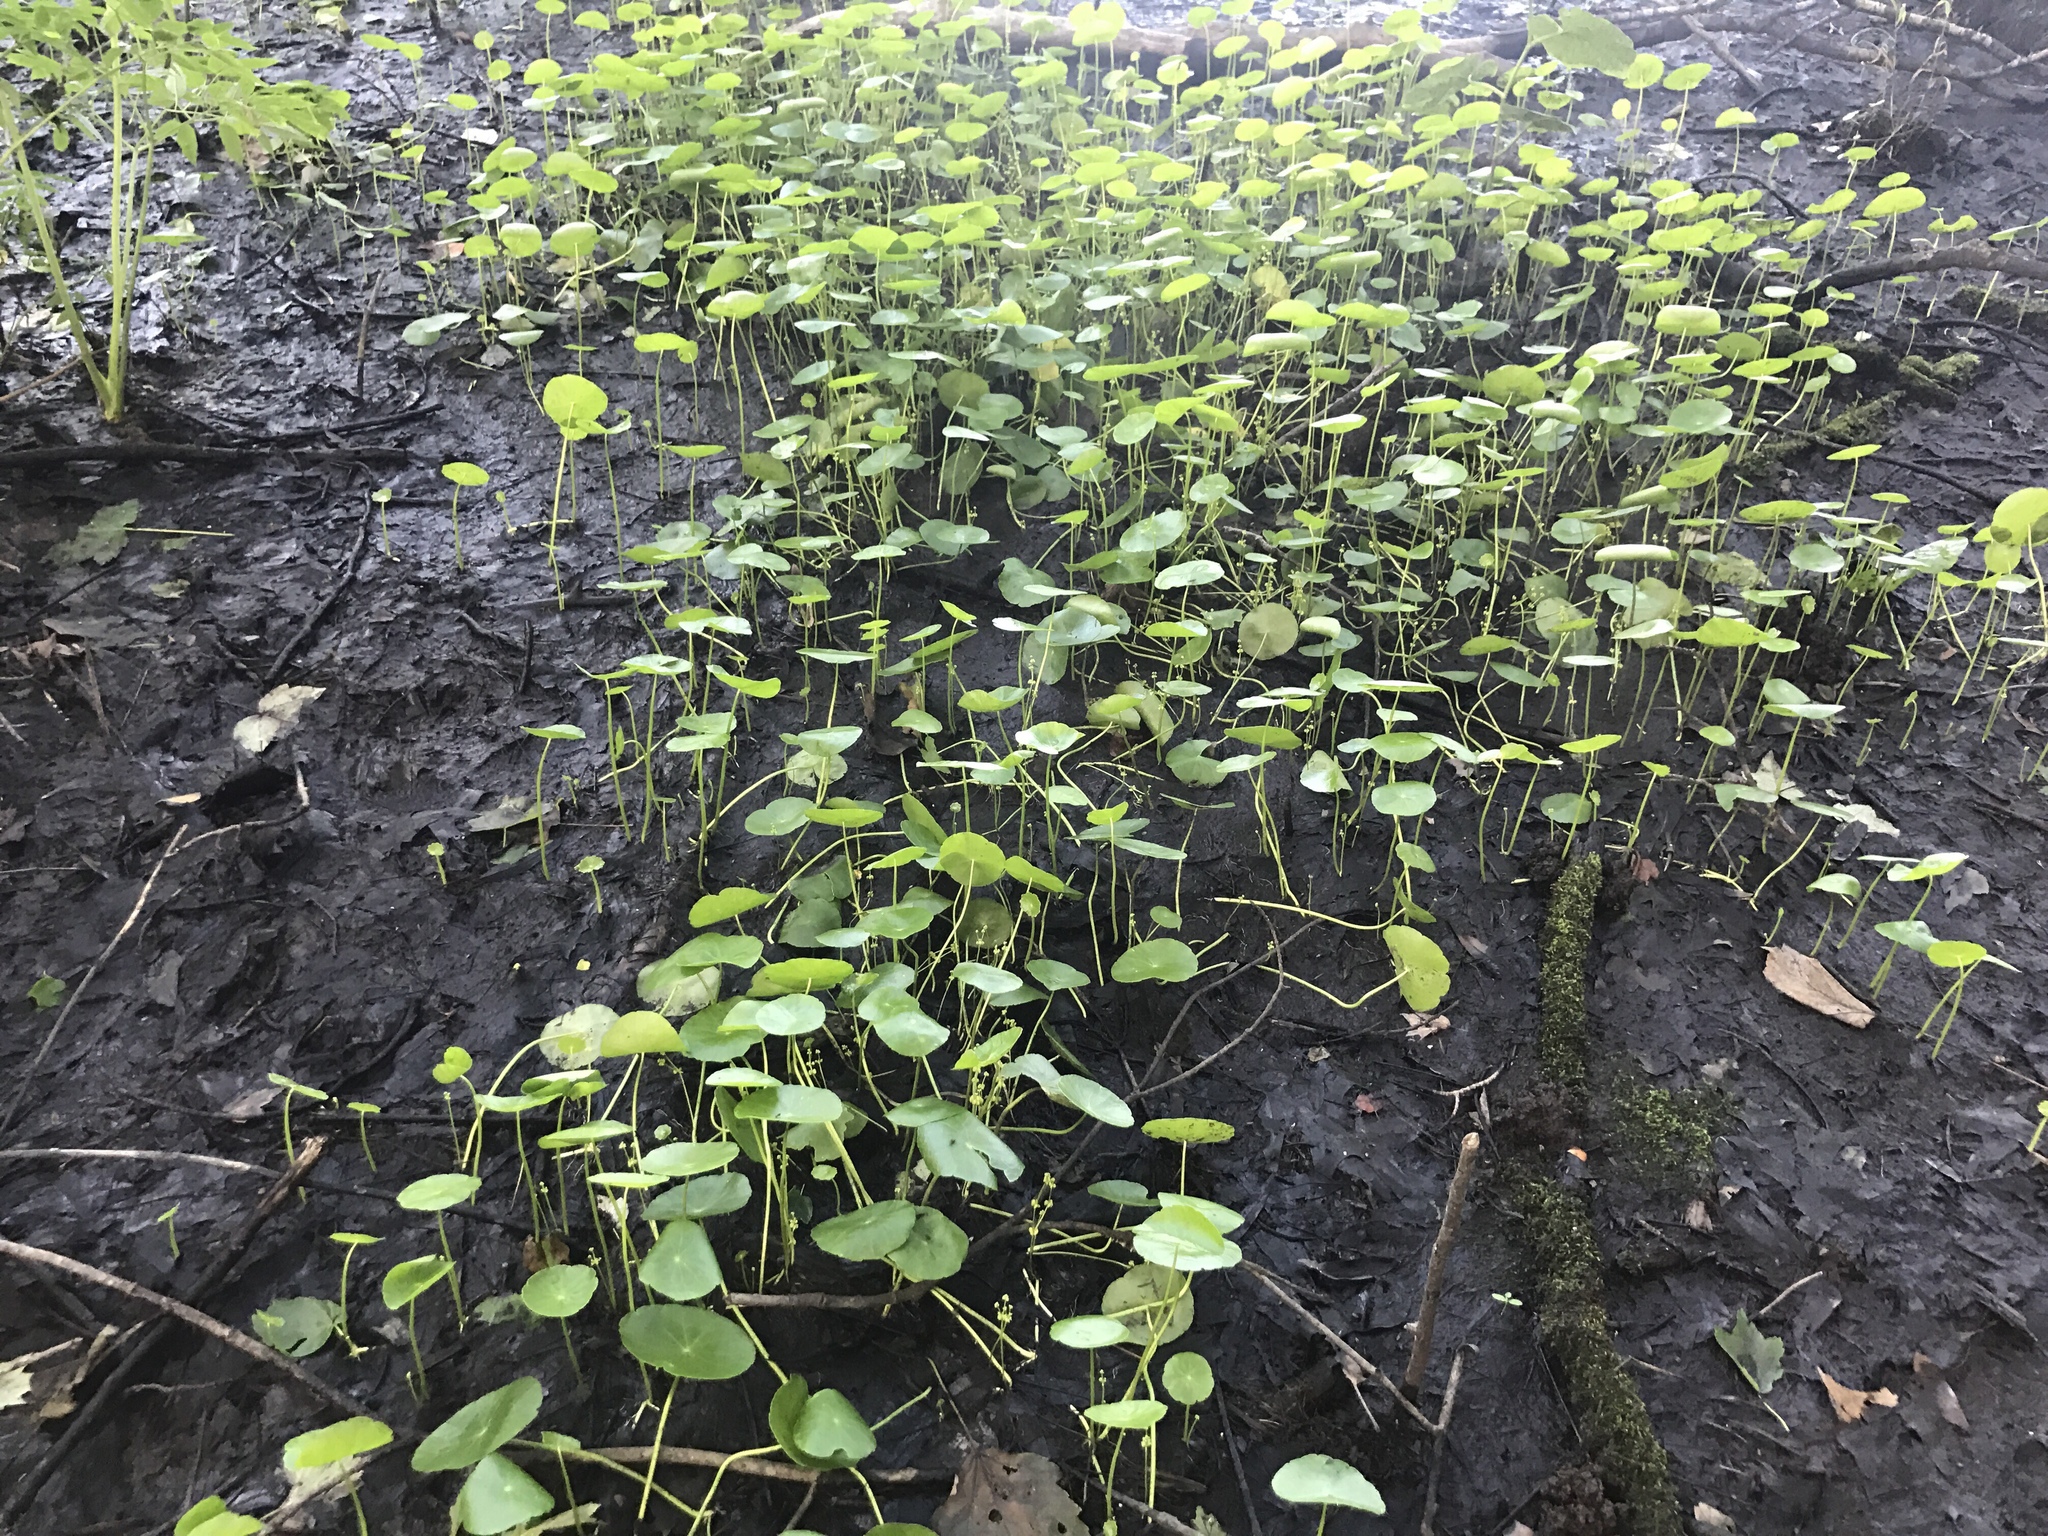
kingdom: Plantae
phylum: Tracheophyta
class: Magnoliopsida
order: Apiales
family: Araliaceae
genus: Hydrocotyle
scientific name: Hydrocotyle verticillata
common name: Whorled marshpennywort
